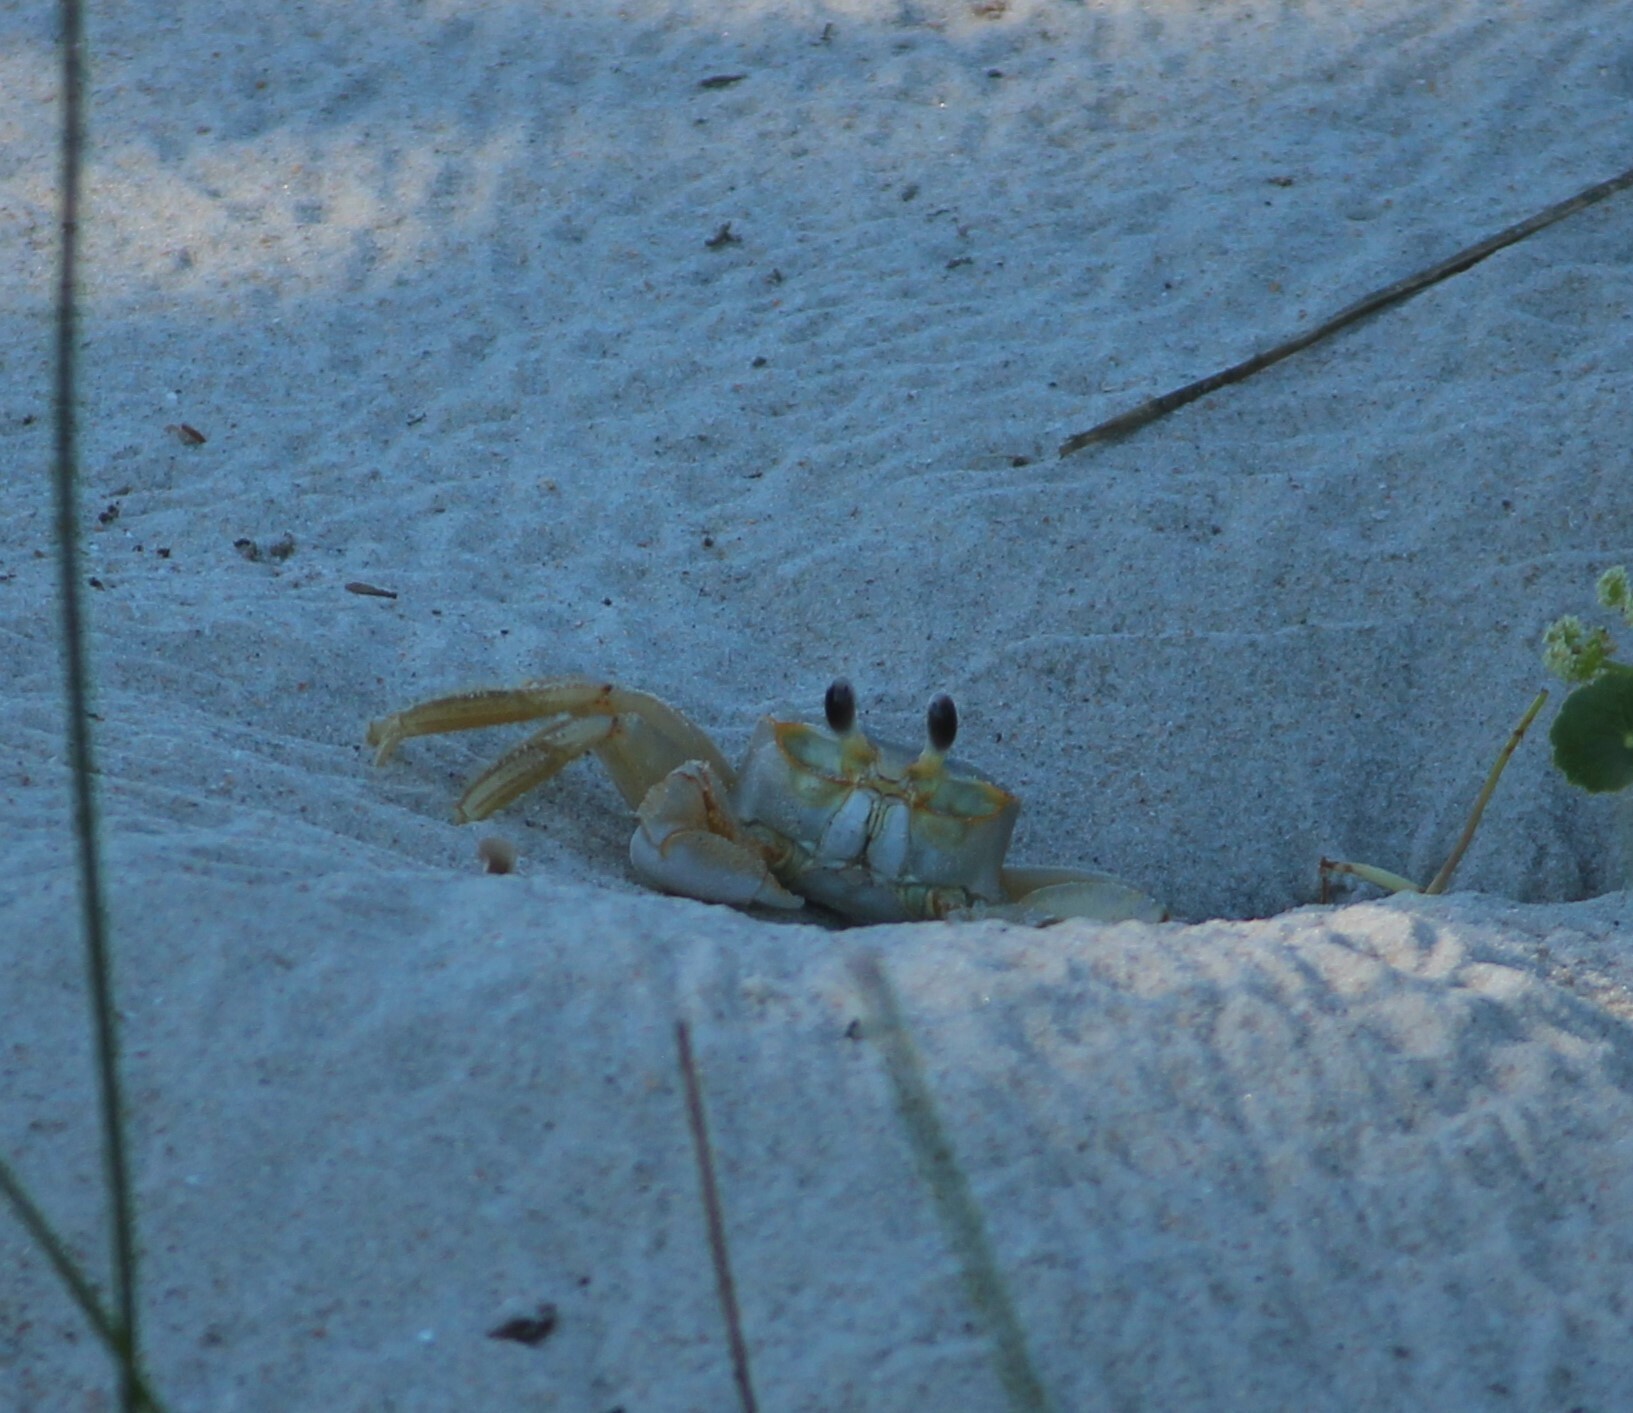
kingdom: Animalia
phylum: Arthropoda
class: Malacostraca
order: Decapoda
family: Ocypodidae
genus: Ocypode
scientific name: Ocypode quadrata
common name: Ghost crab
